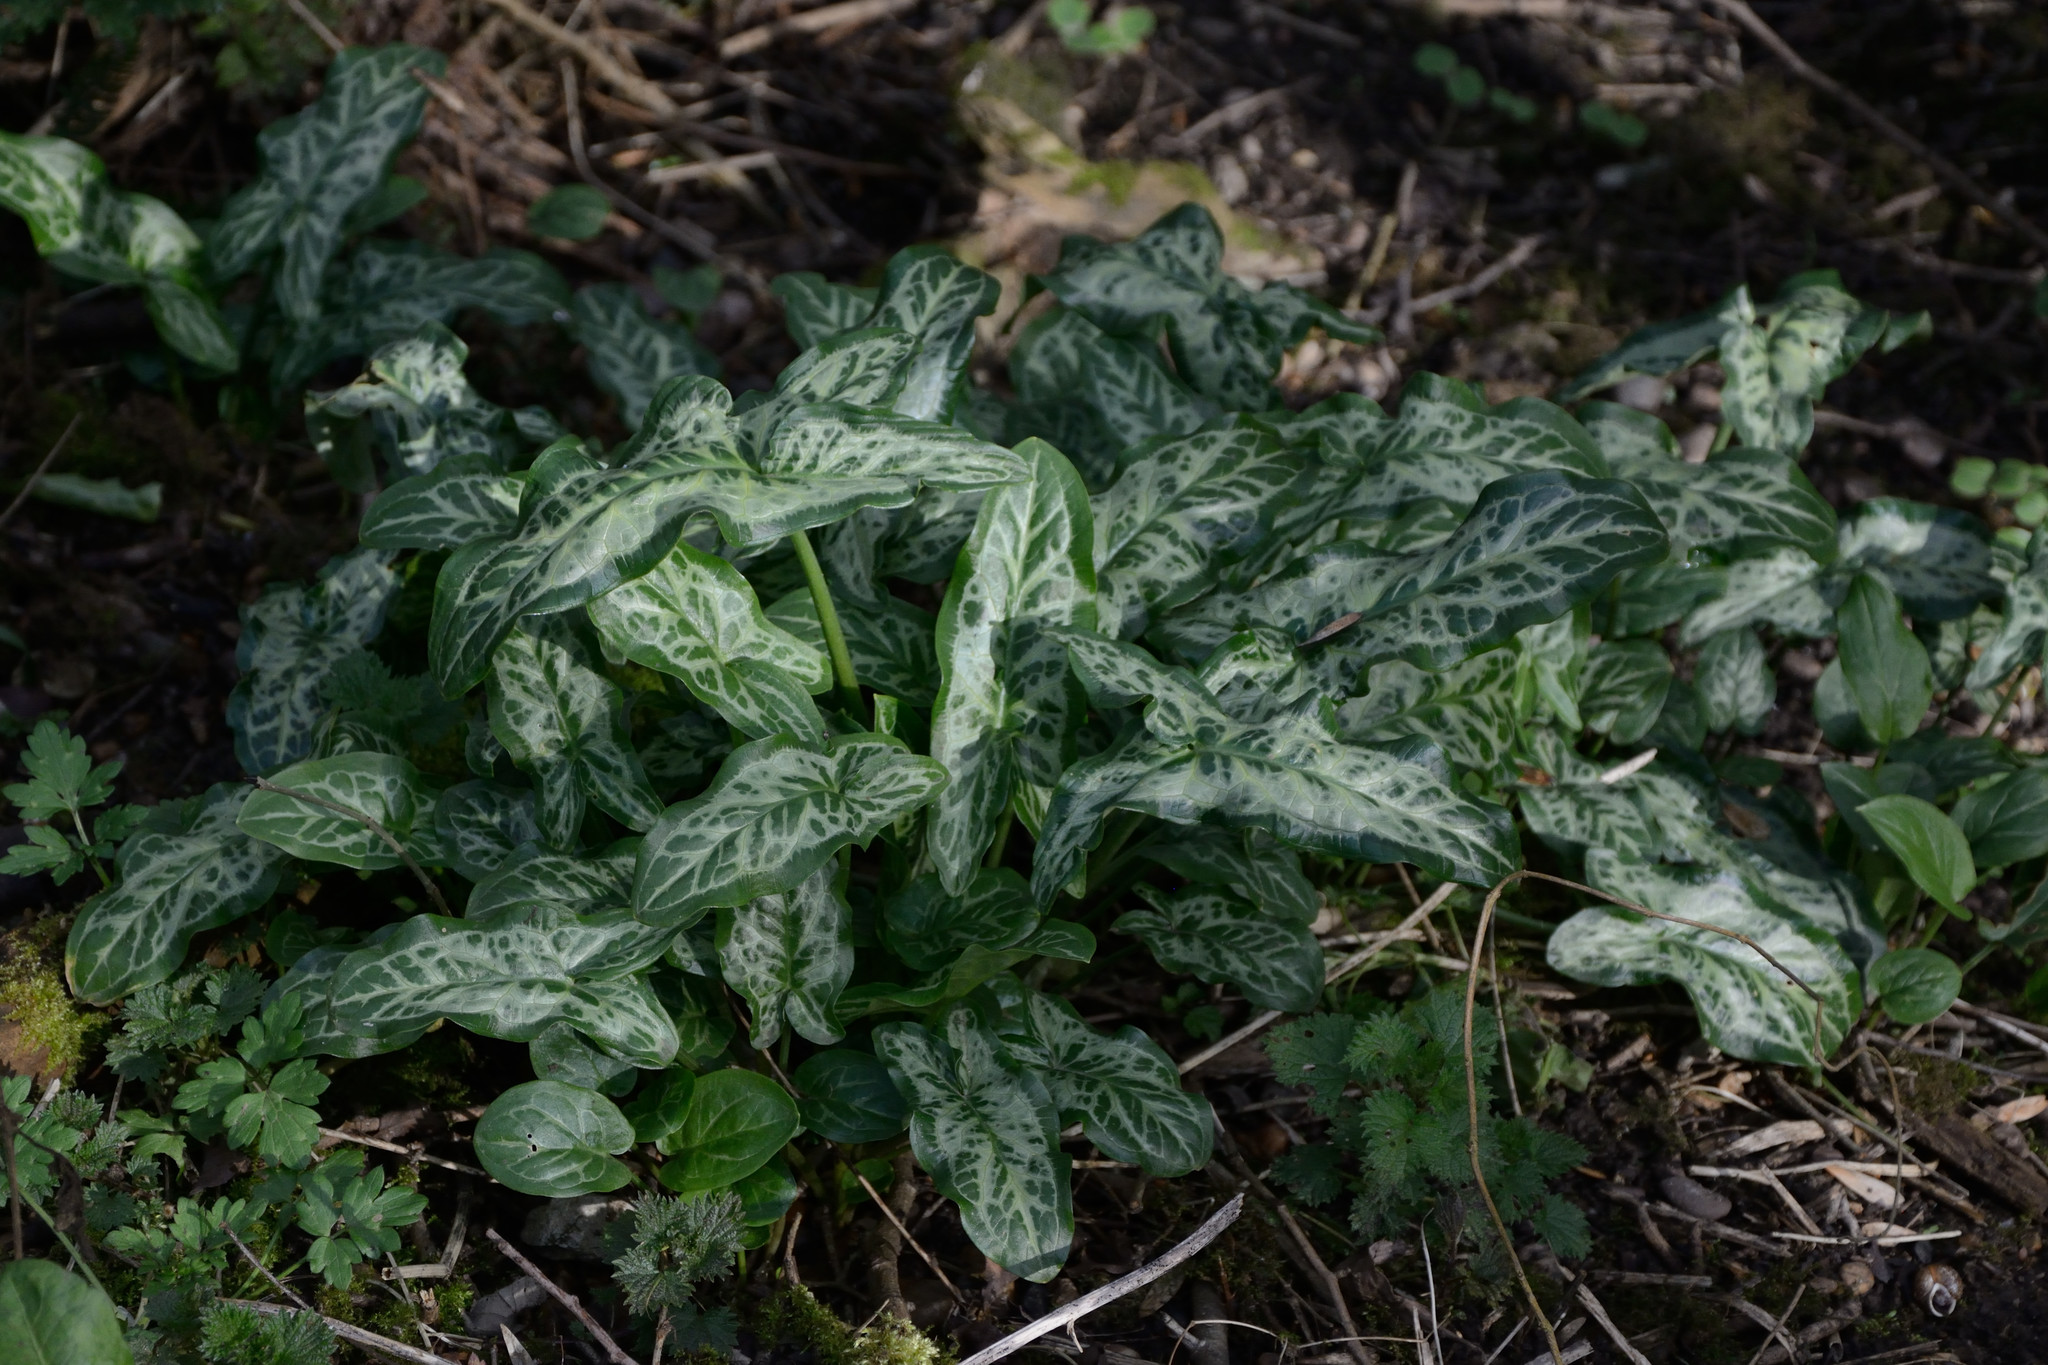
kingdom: Plantae
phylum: Tracheophyta
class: Liliopsida
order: Alismatales
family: Araceae
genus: Arum
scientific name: Arum italicum
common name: Italian lords-and-ladies
